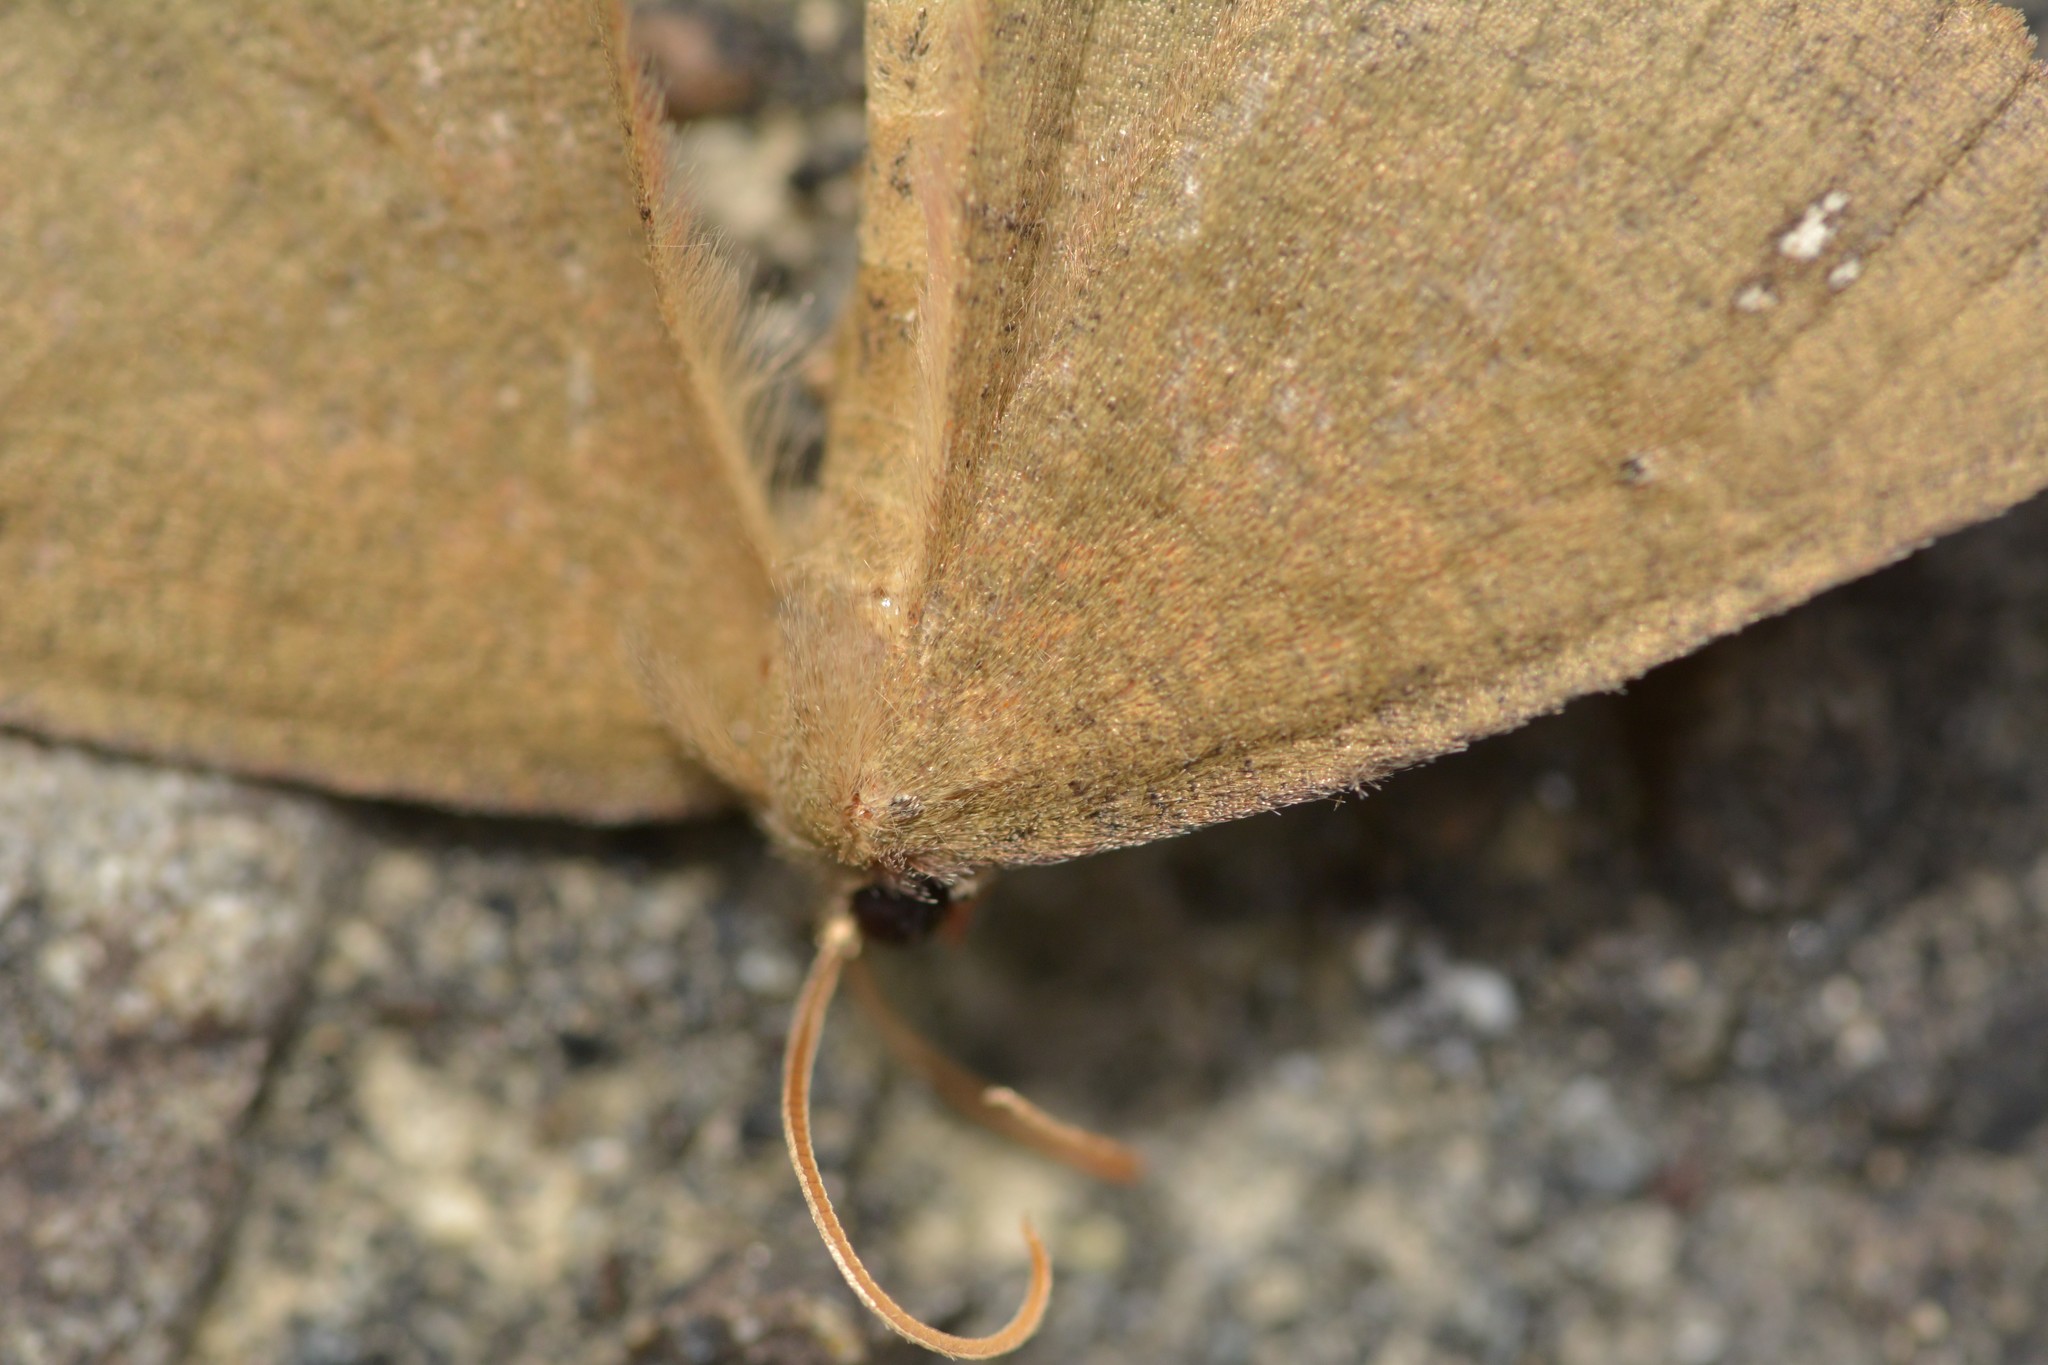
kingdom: Animalia
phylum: Arthropoda
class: Insecta
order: Lepidoptera
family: Geometridae
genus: Xyridacma
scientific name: Xyridacma ustaria
